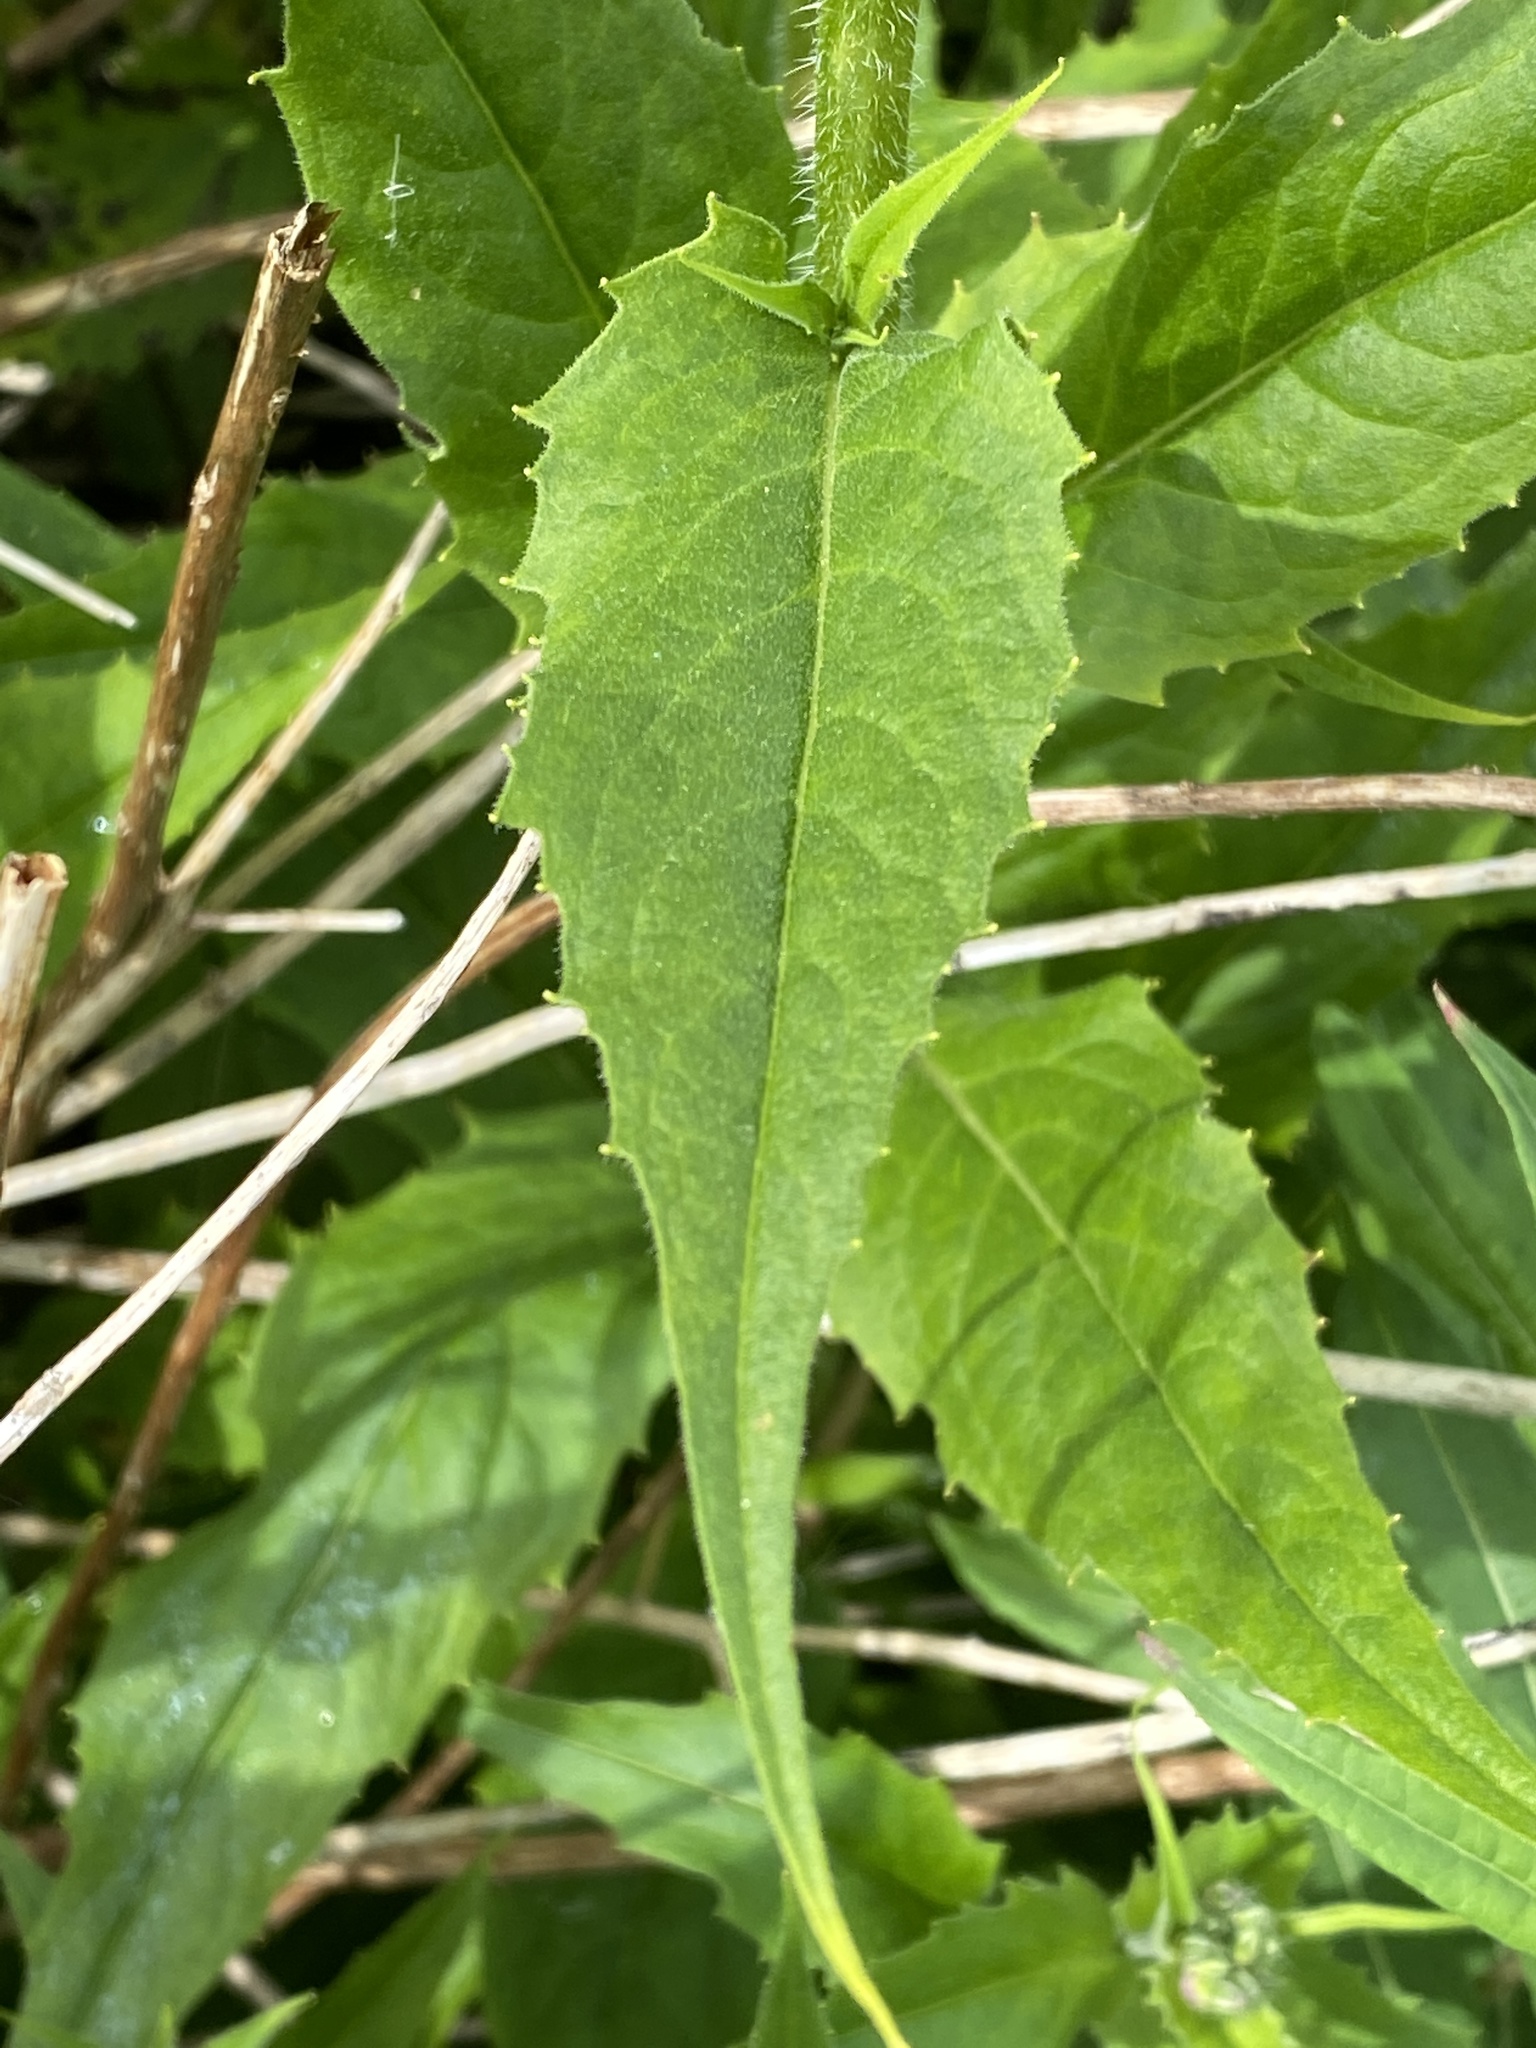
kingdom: Plantae
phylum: Tracheophyta
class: Magnoliopsida
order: Brassicales
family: Brassicaceae
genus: Hesperis
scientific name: Hesperis matronalis
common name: Dame's-violet
